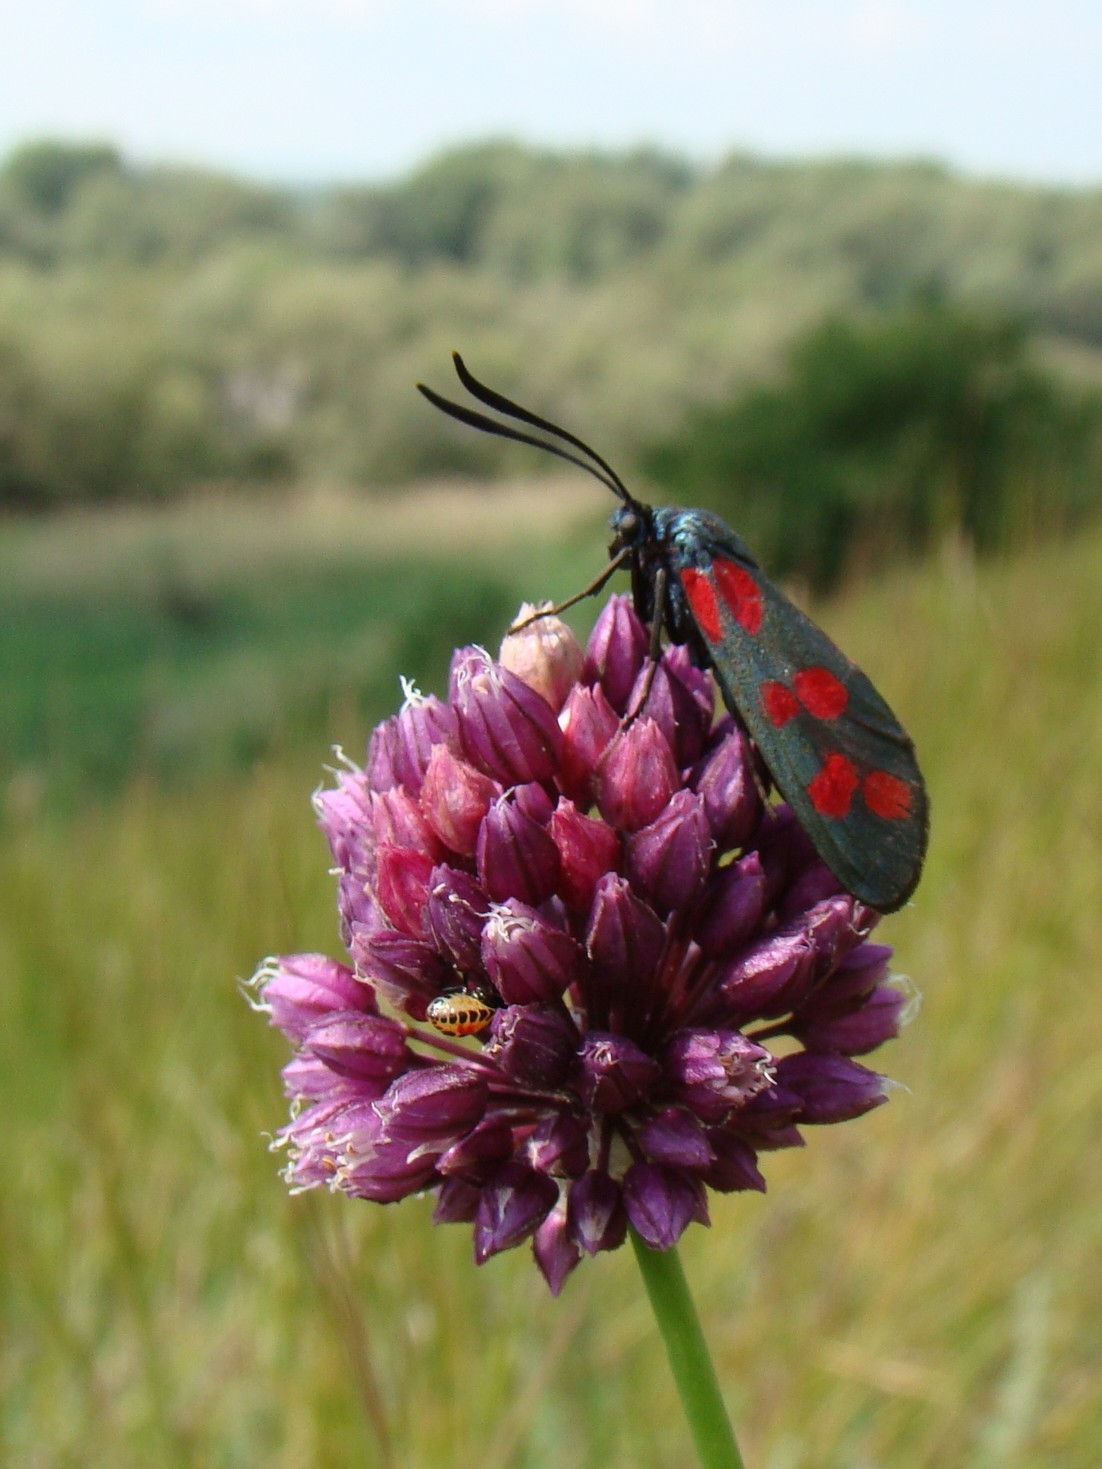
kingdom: Plantae
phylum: Tracheophyta
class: Liliopsida
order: Asparagales
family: Amaryllidaceae
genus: Allium
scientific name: Allium rotundum
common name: Sand leek
